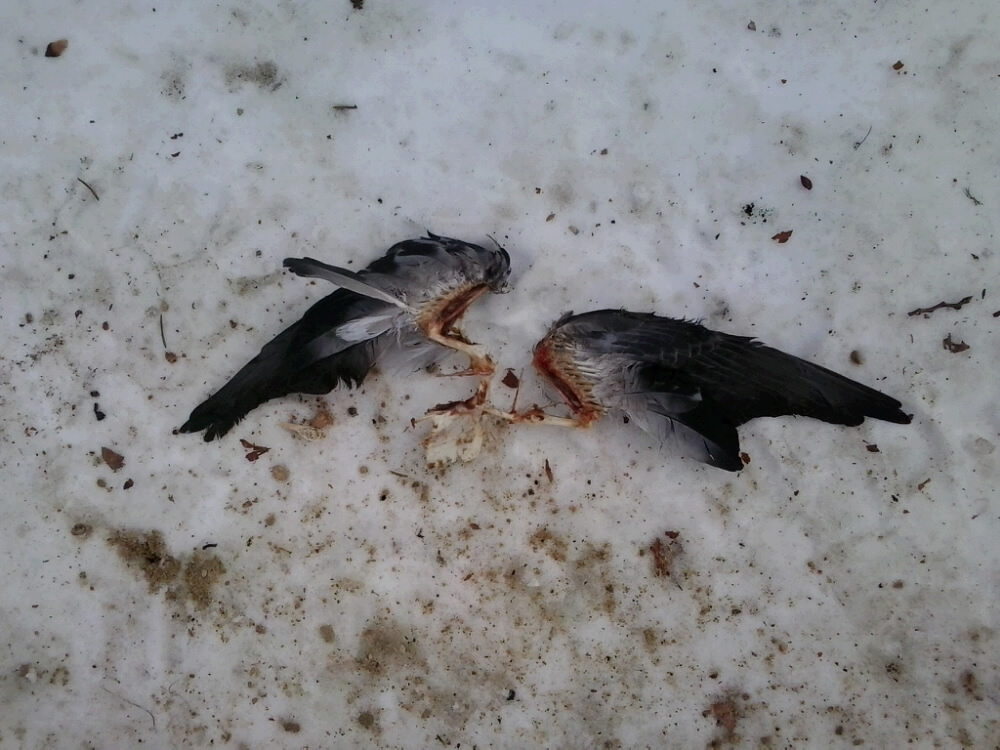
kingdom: Animalia
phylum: Chordata
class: Aves
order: Columbiformes
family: Columbidae
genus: Columba
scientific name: Columba livia
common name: Rock pigeon
